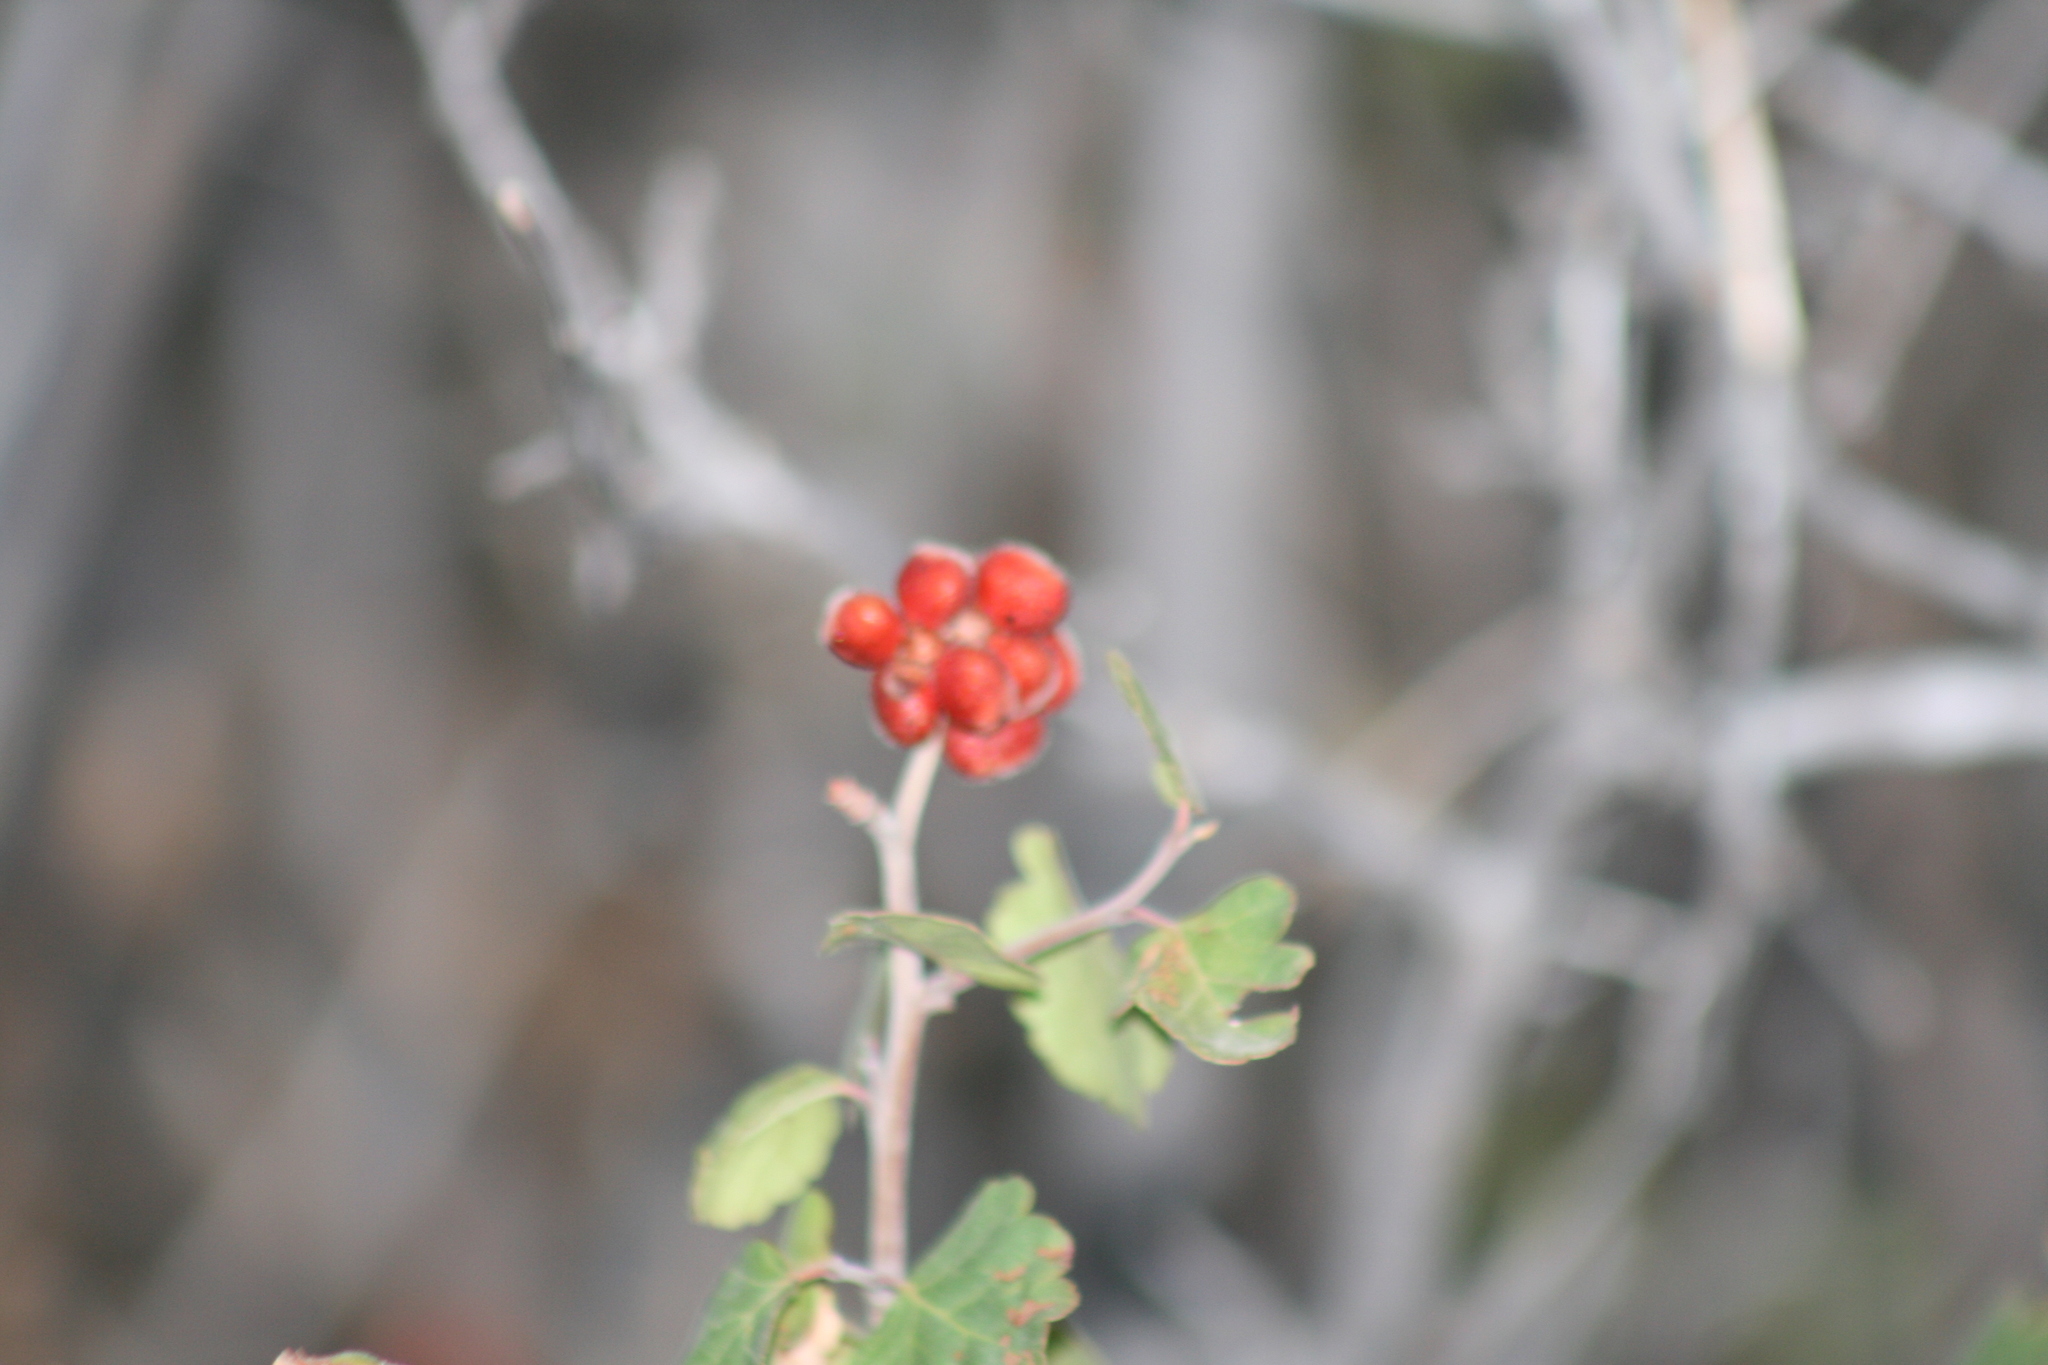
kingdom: Plantae
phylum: Tracheophyta
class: Magnoliopsida
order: Sapindales
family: Anacardiaceae
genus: Rhus
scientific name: Rhus trilobata
